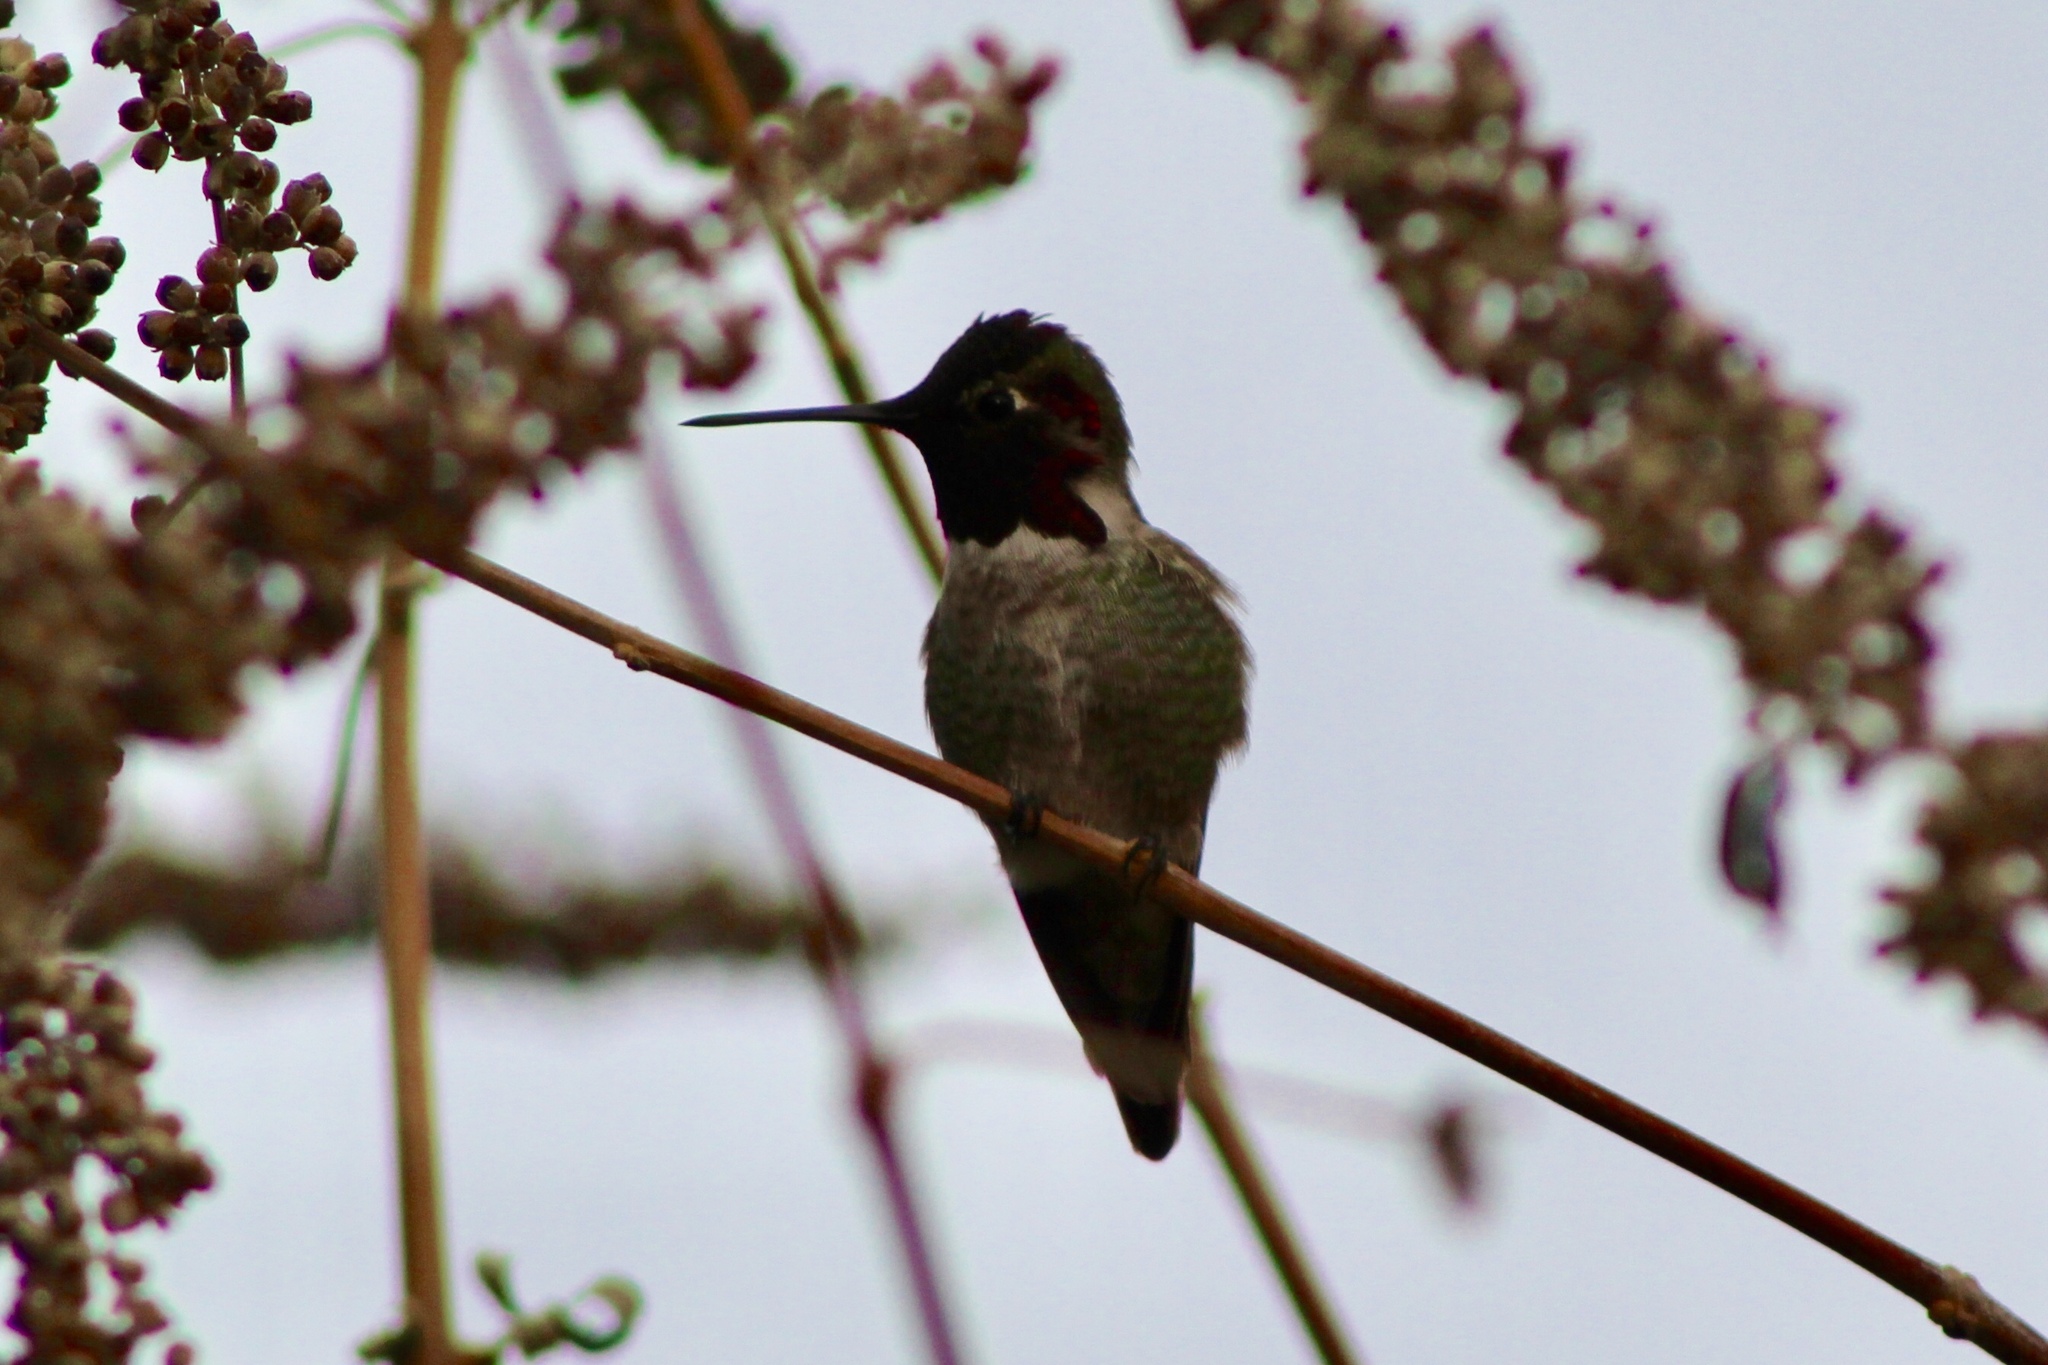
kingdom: Animalia
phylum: Chordata
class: Aves
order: Apodiformes
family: Trochilidae
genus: Calypte
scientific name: Calypte anna
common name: Anna's hummingbird
